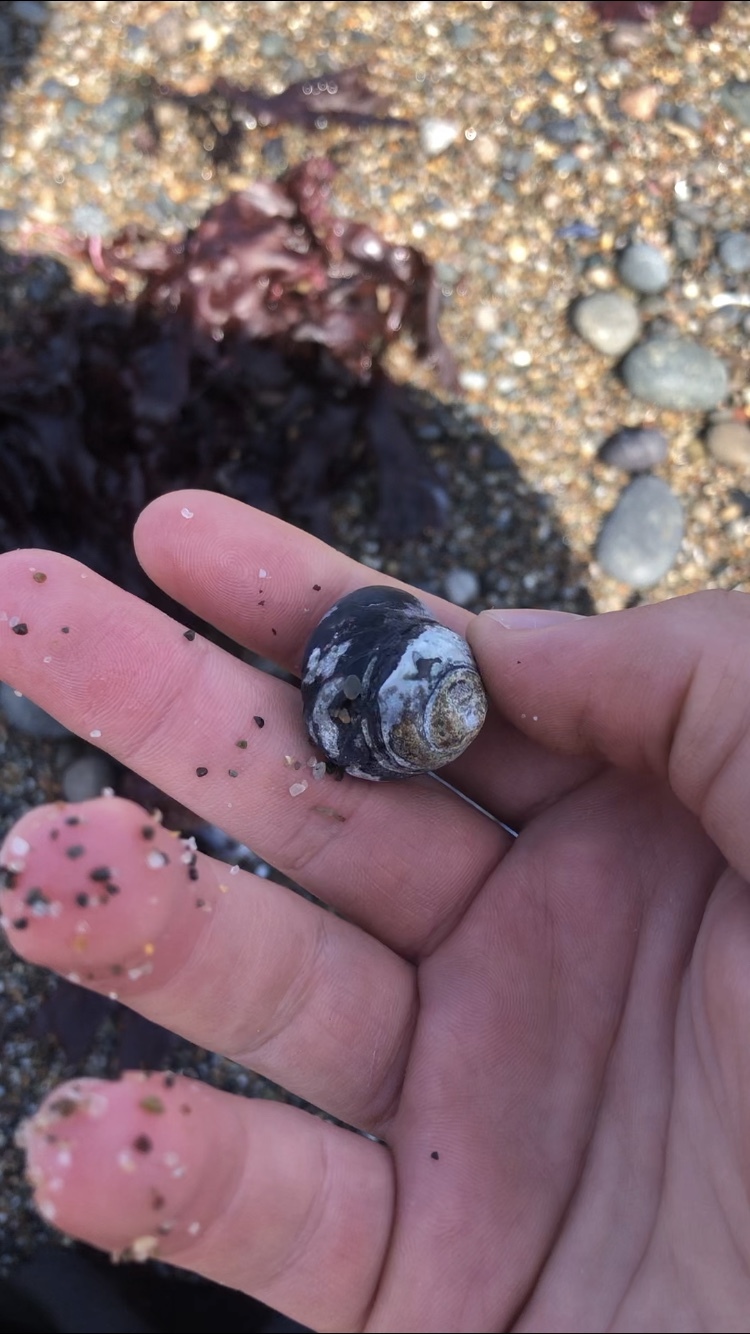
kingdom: Animalia
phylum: Mollusca
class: Gastropoda
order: Trochida
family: Tegulidae
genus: Tegula
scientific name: Tegula funebralis
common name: Black tegula
